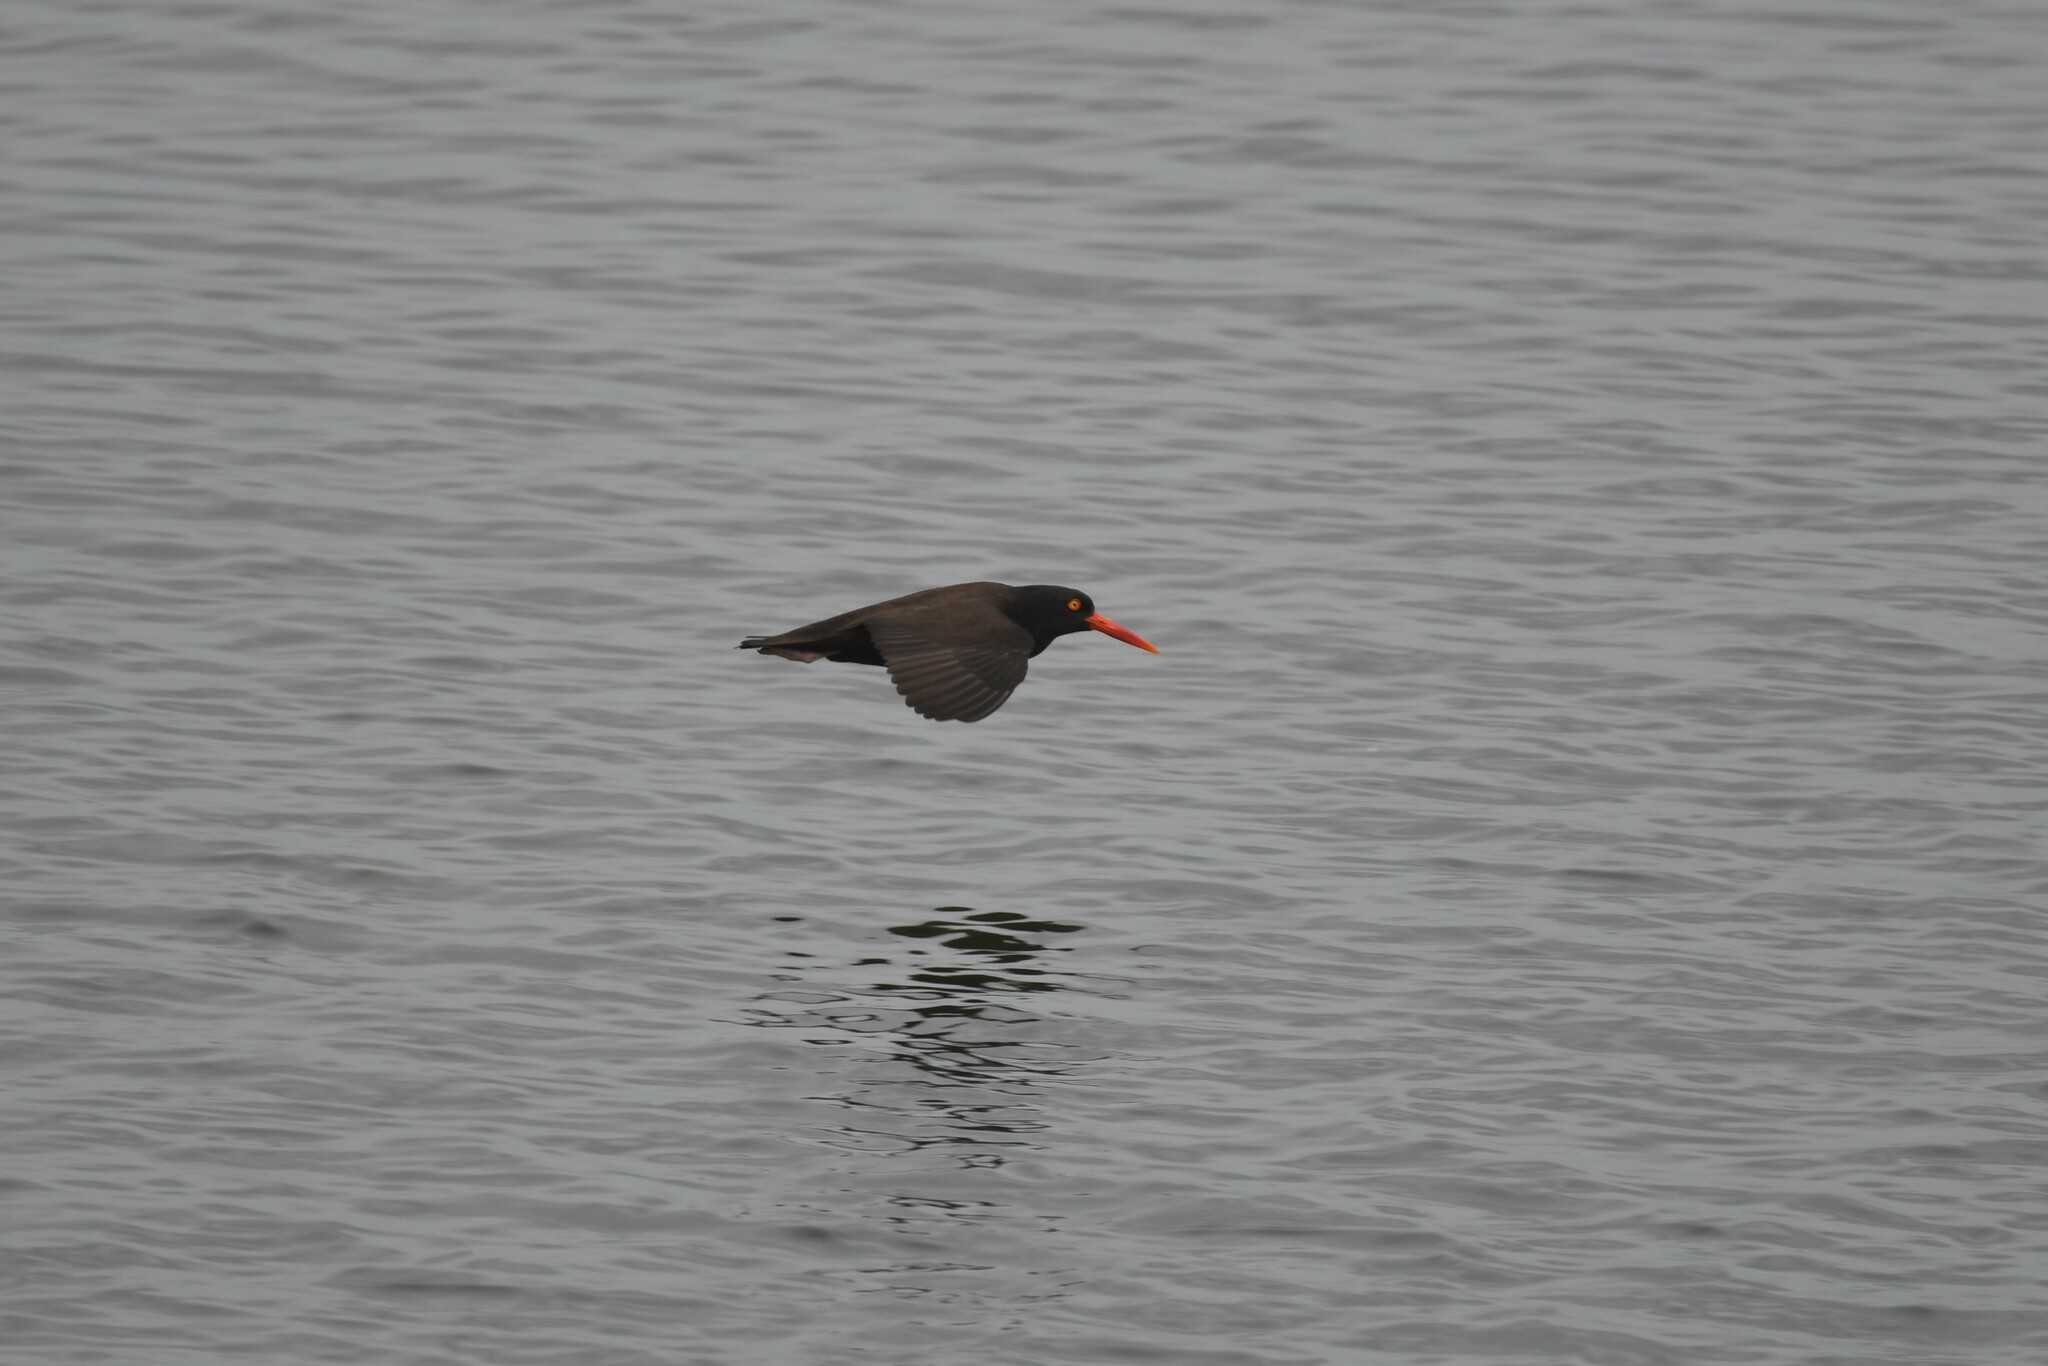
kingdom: Animalia
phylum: Chordata
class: Aves
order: Charadriiformes
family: Haematopodidae
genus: Haematopus
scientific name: Haematopus bachmani
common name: Black oystercatcher
